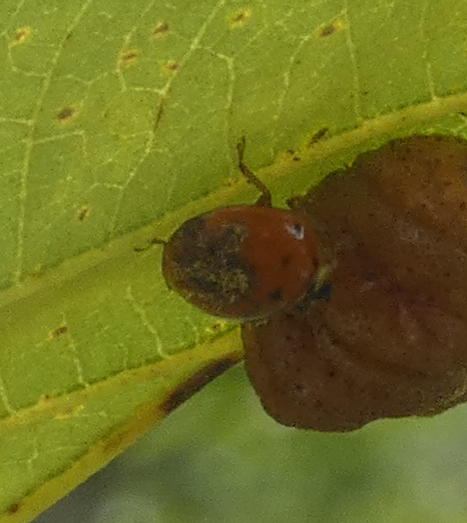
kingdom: Animalia
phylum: Arthropoda
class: Insecta
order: Coleoptera
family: Coccinellidae
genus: Harmonia
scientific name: Harmonia axyridis
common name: Harlequin ladybird
